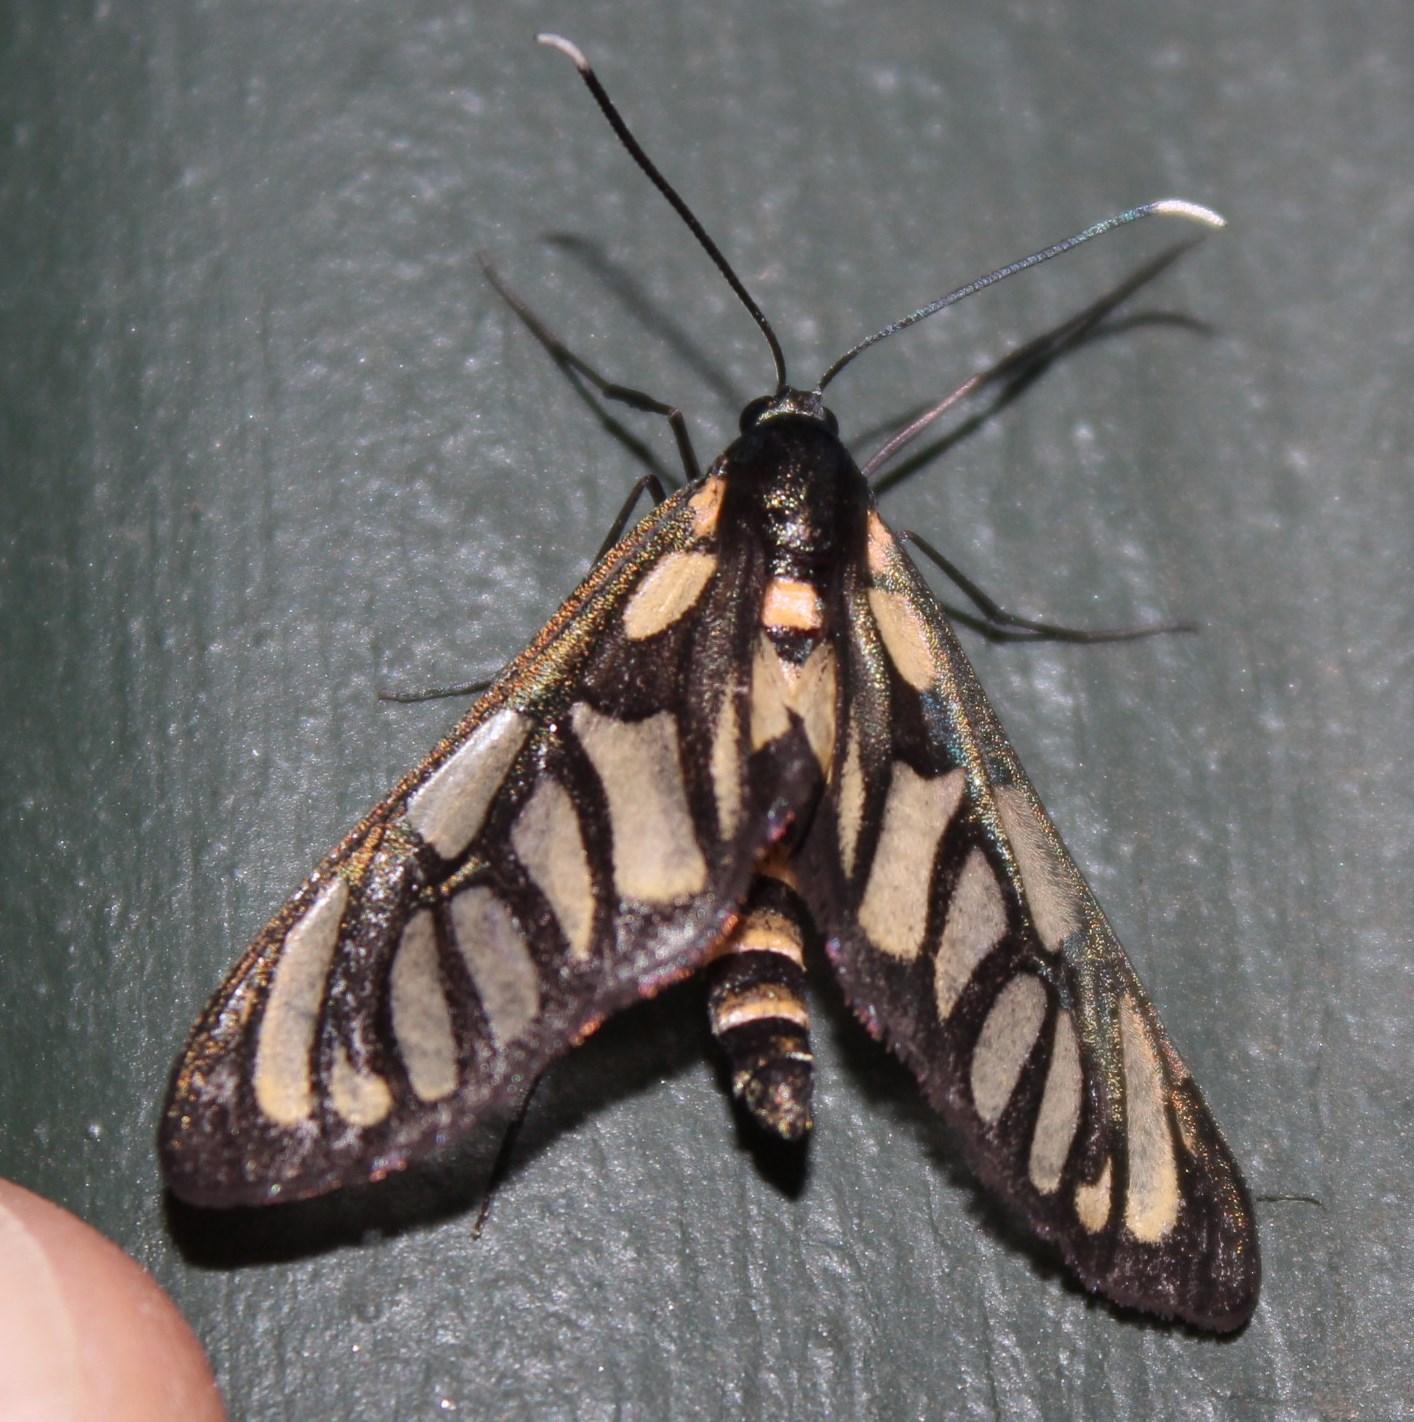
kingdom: Animalia
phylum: Arthropoda
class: Insecta
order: Lepidoptera
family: Erebidae
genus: Amata
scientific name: Amata polidamon
